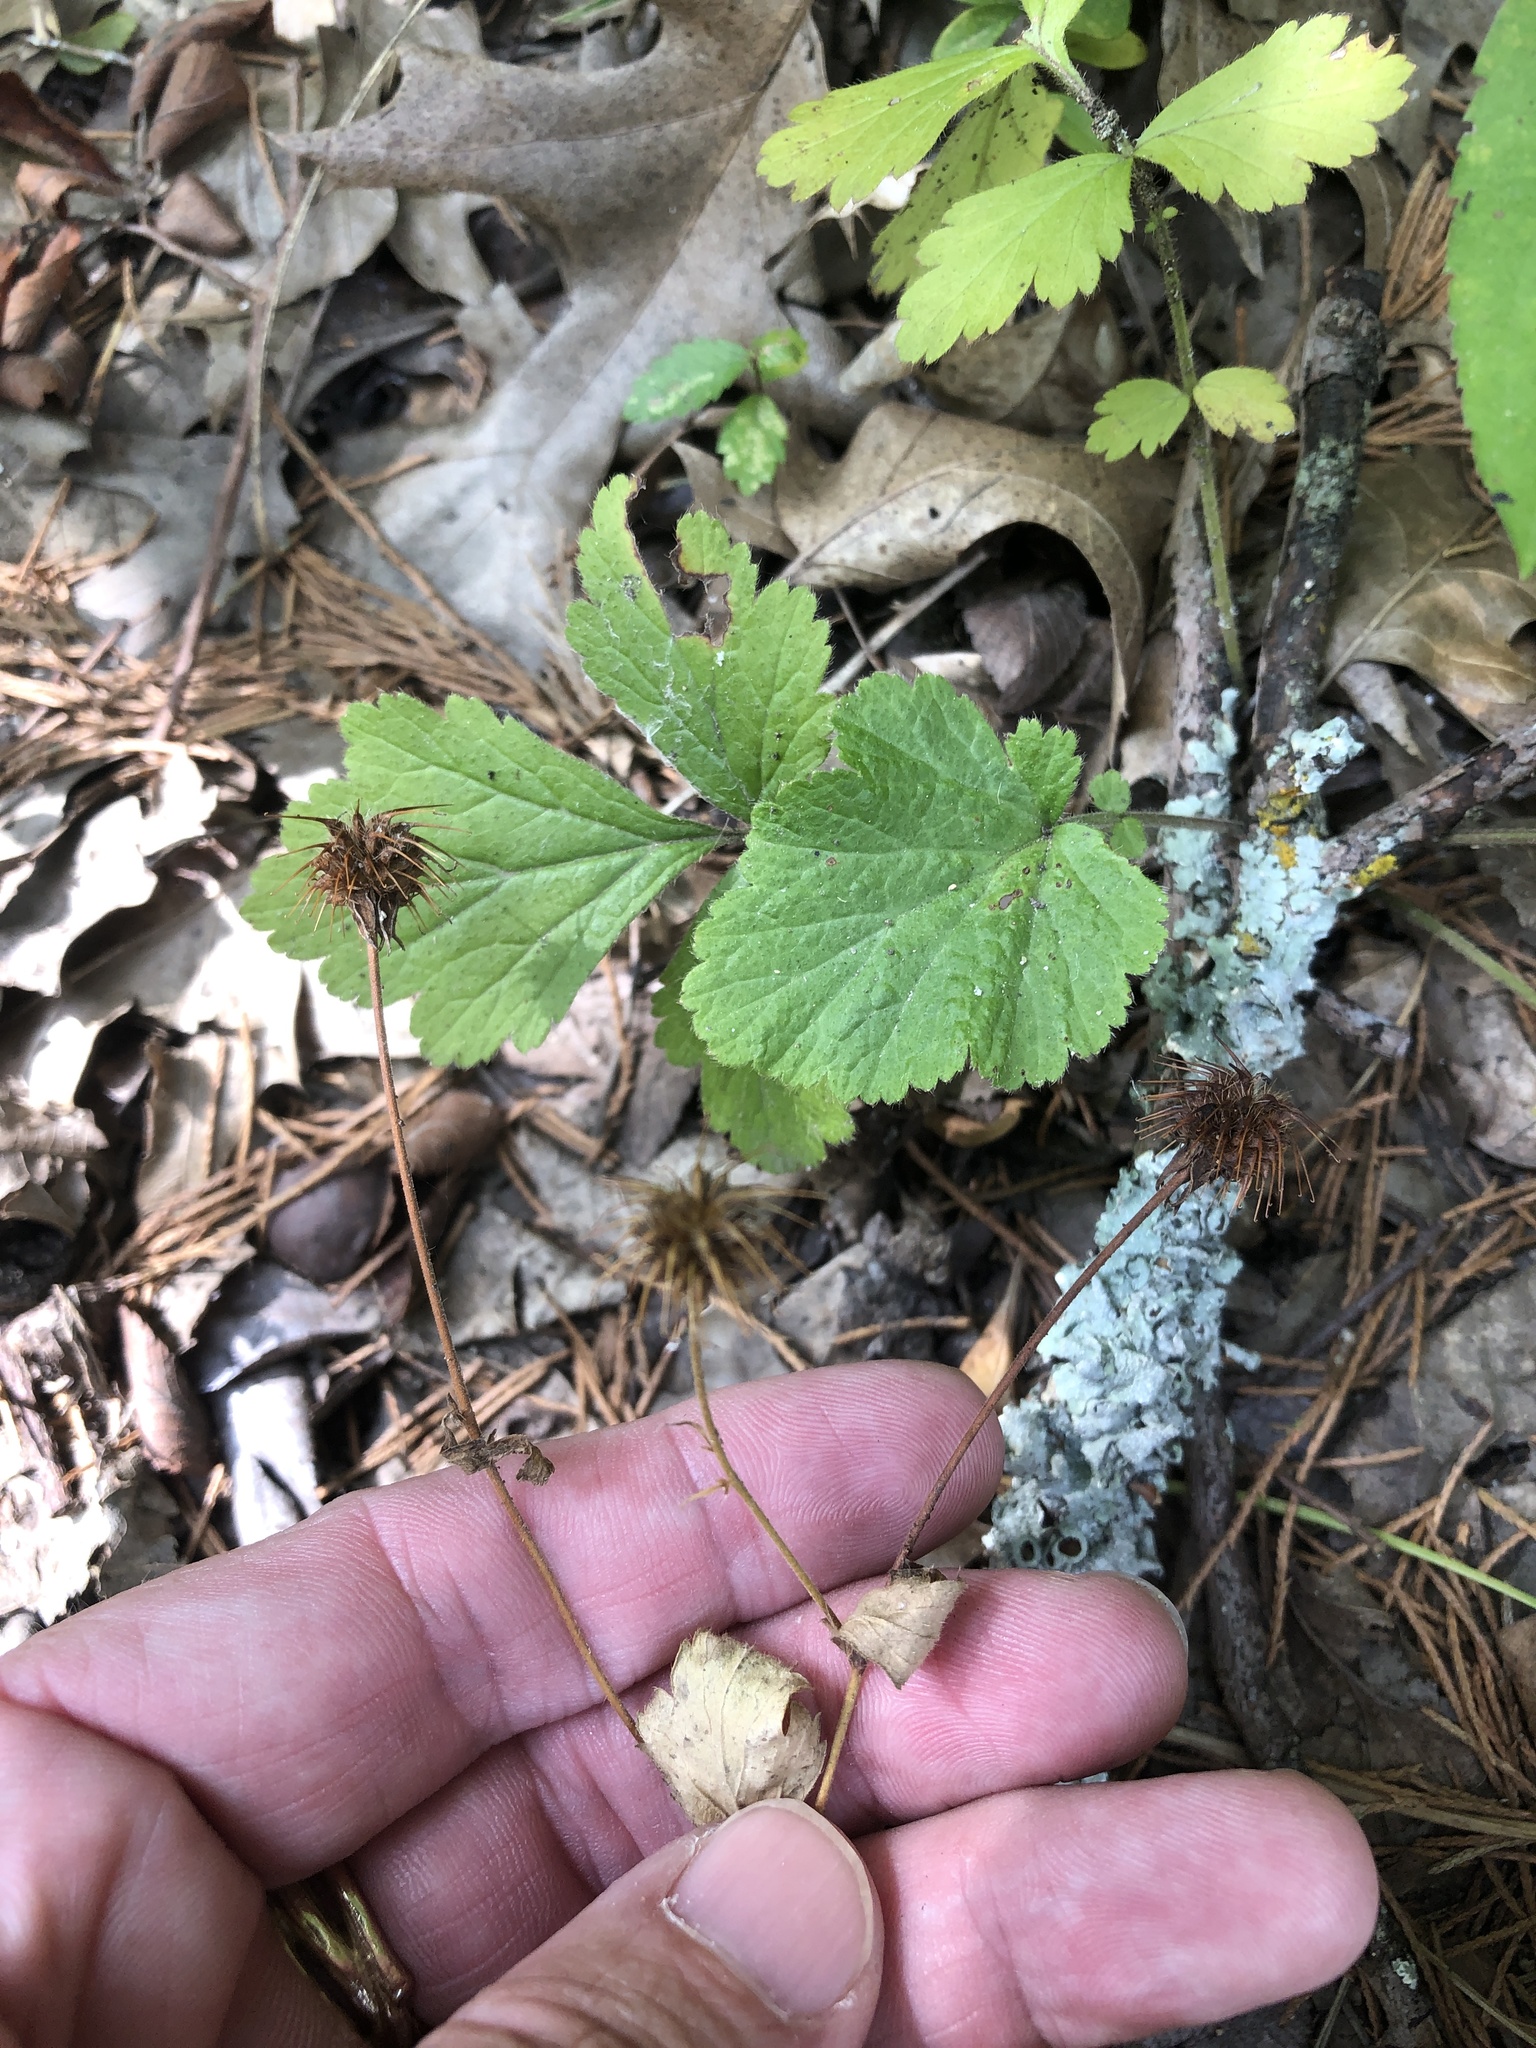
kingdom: Plantae
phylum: Tracheophyta
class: Magnoliopsida
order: Rosales
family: Rosaceae
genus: Geum
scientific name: Geum canadense
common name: White avens
